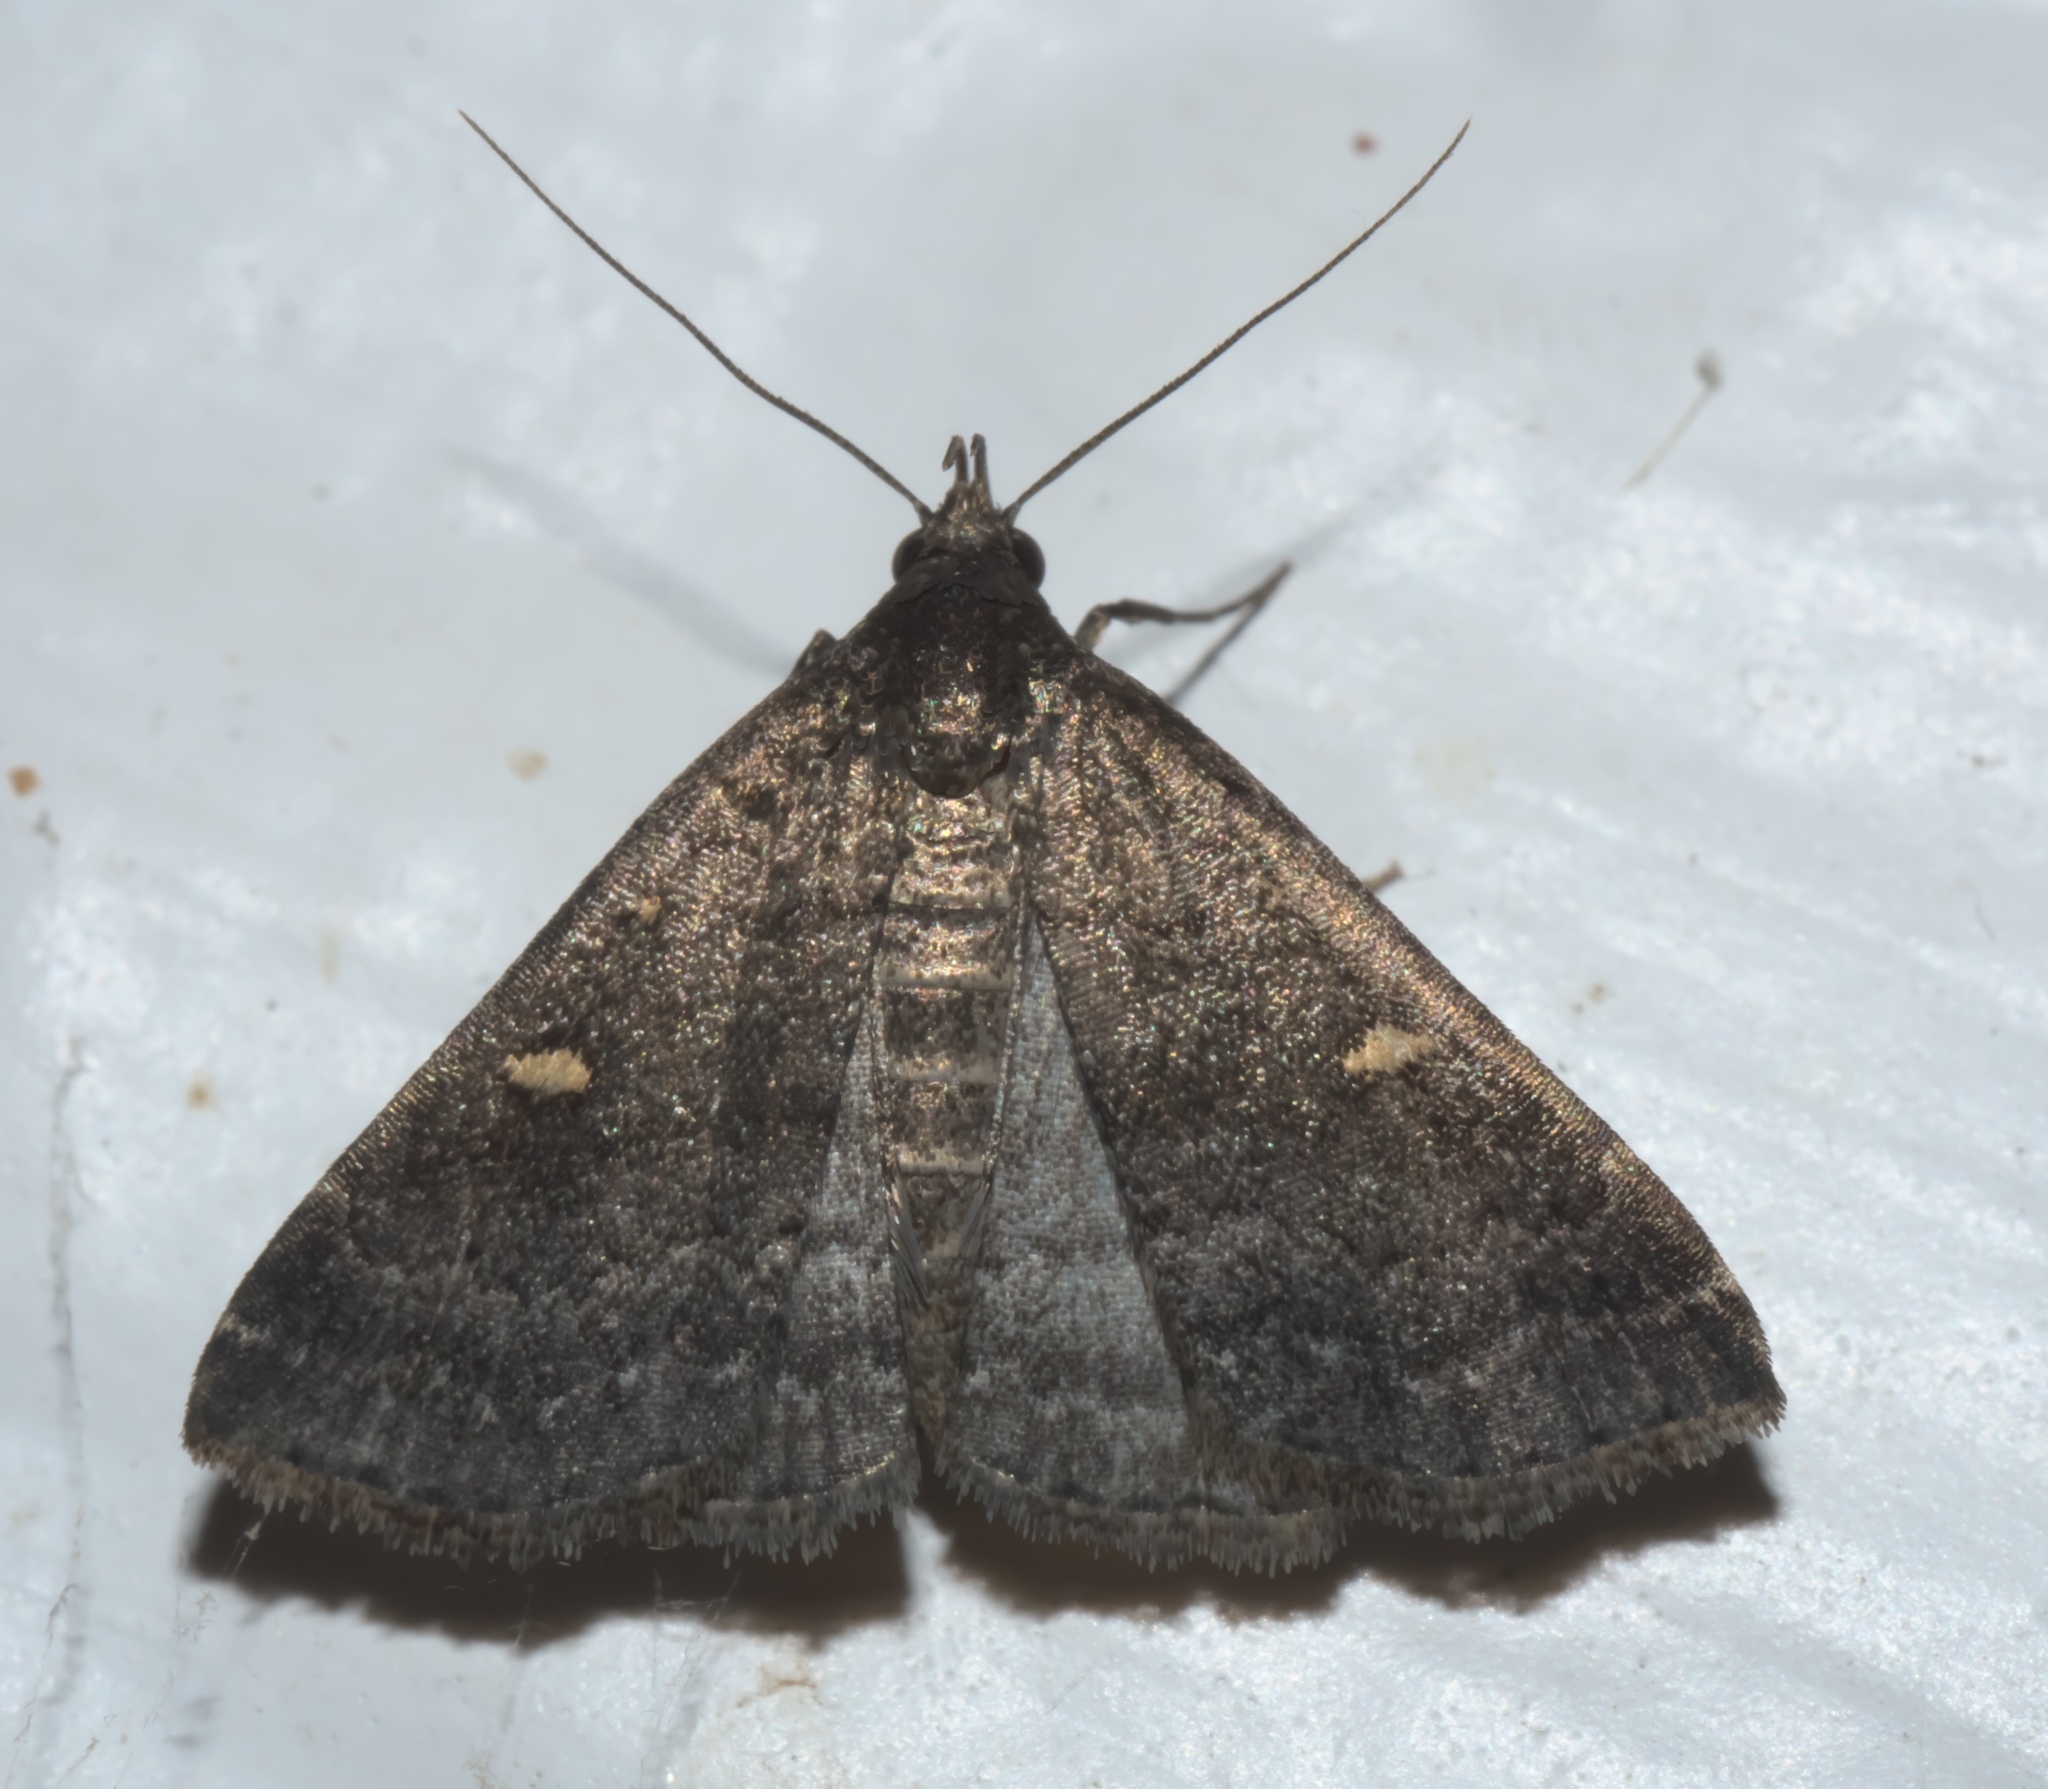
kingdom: Animalia
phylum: Arthropoda
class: Insecta
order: Lepidoptera
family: Erebidae
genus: Tetanolita
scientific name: Tetanolita mynesalis
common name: Smoky tetanolita moth
